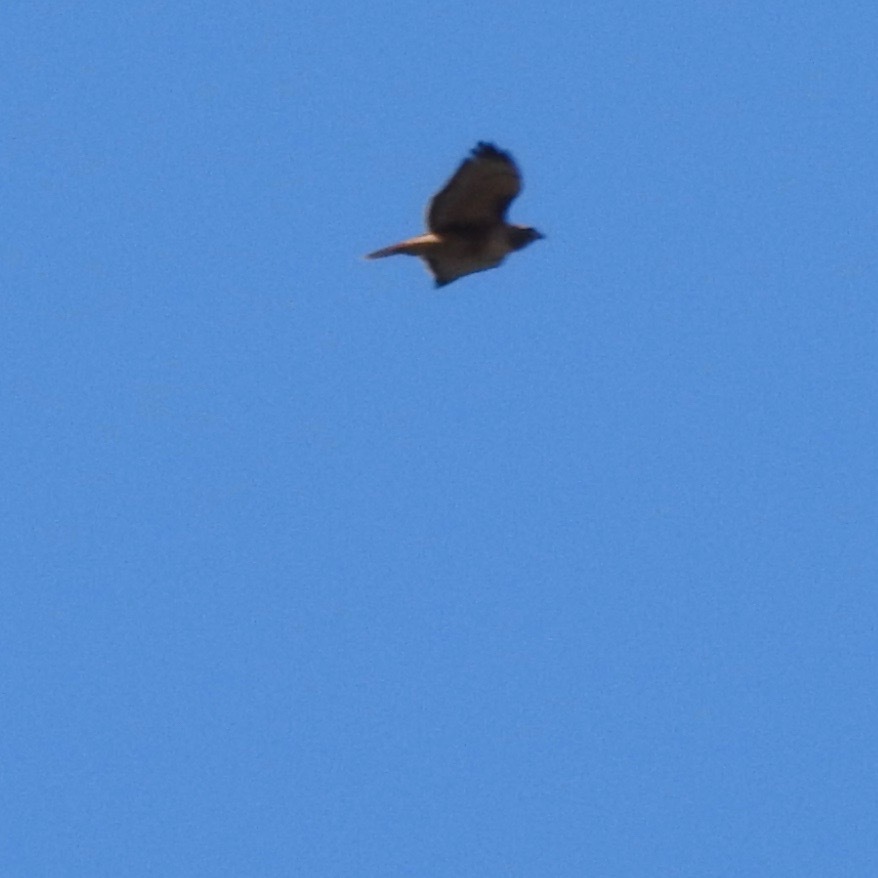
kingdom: Animalia
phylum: Chordata
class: Aves
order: Accipitriformes
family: Accipitridae
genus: Buteo
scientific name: Buteo jamaicensis
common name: Red-tailed hawk
